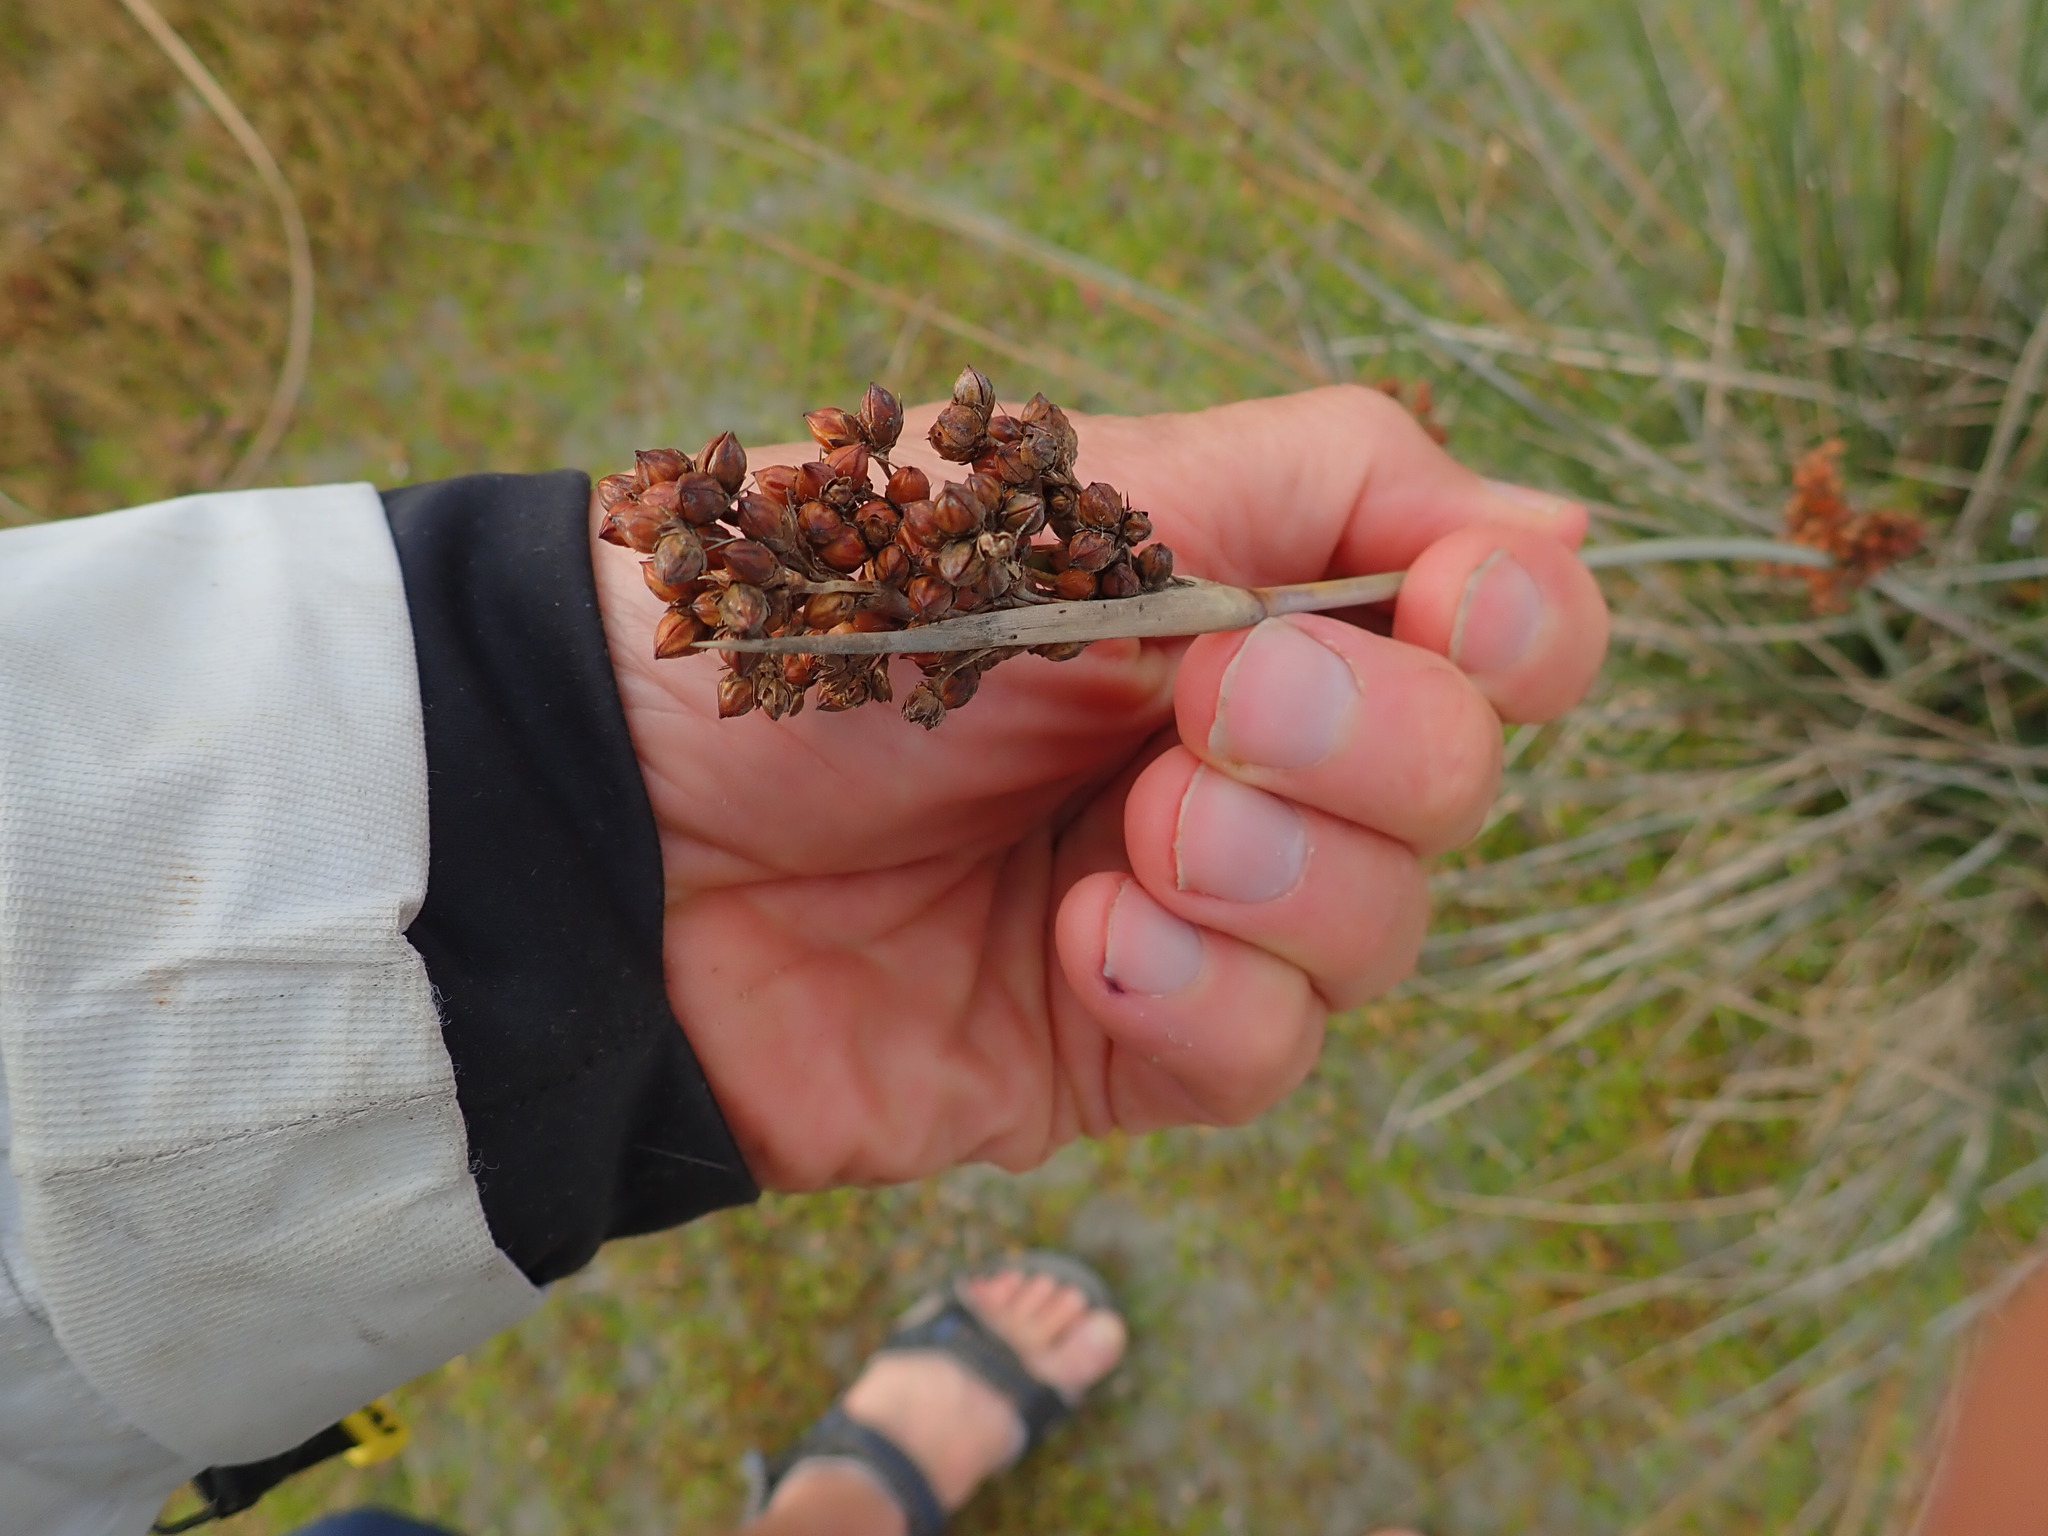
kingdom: Plantae
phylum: Tracheophyta
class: Liliopsida
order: Poales
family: Juncaceae
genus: Juncus
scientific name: Juncus acutus
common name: Sharp rush
